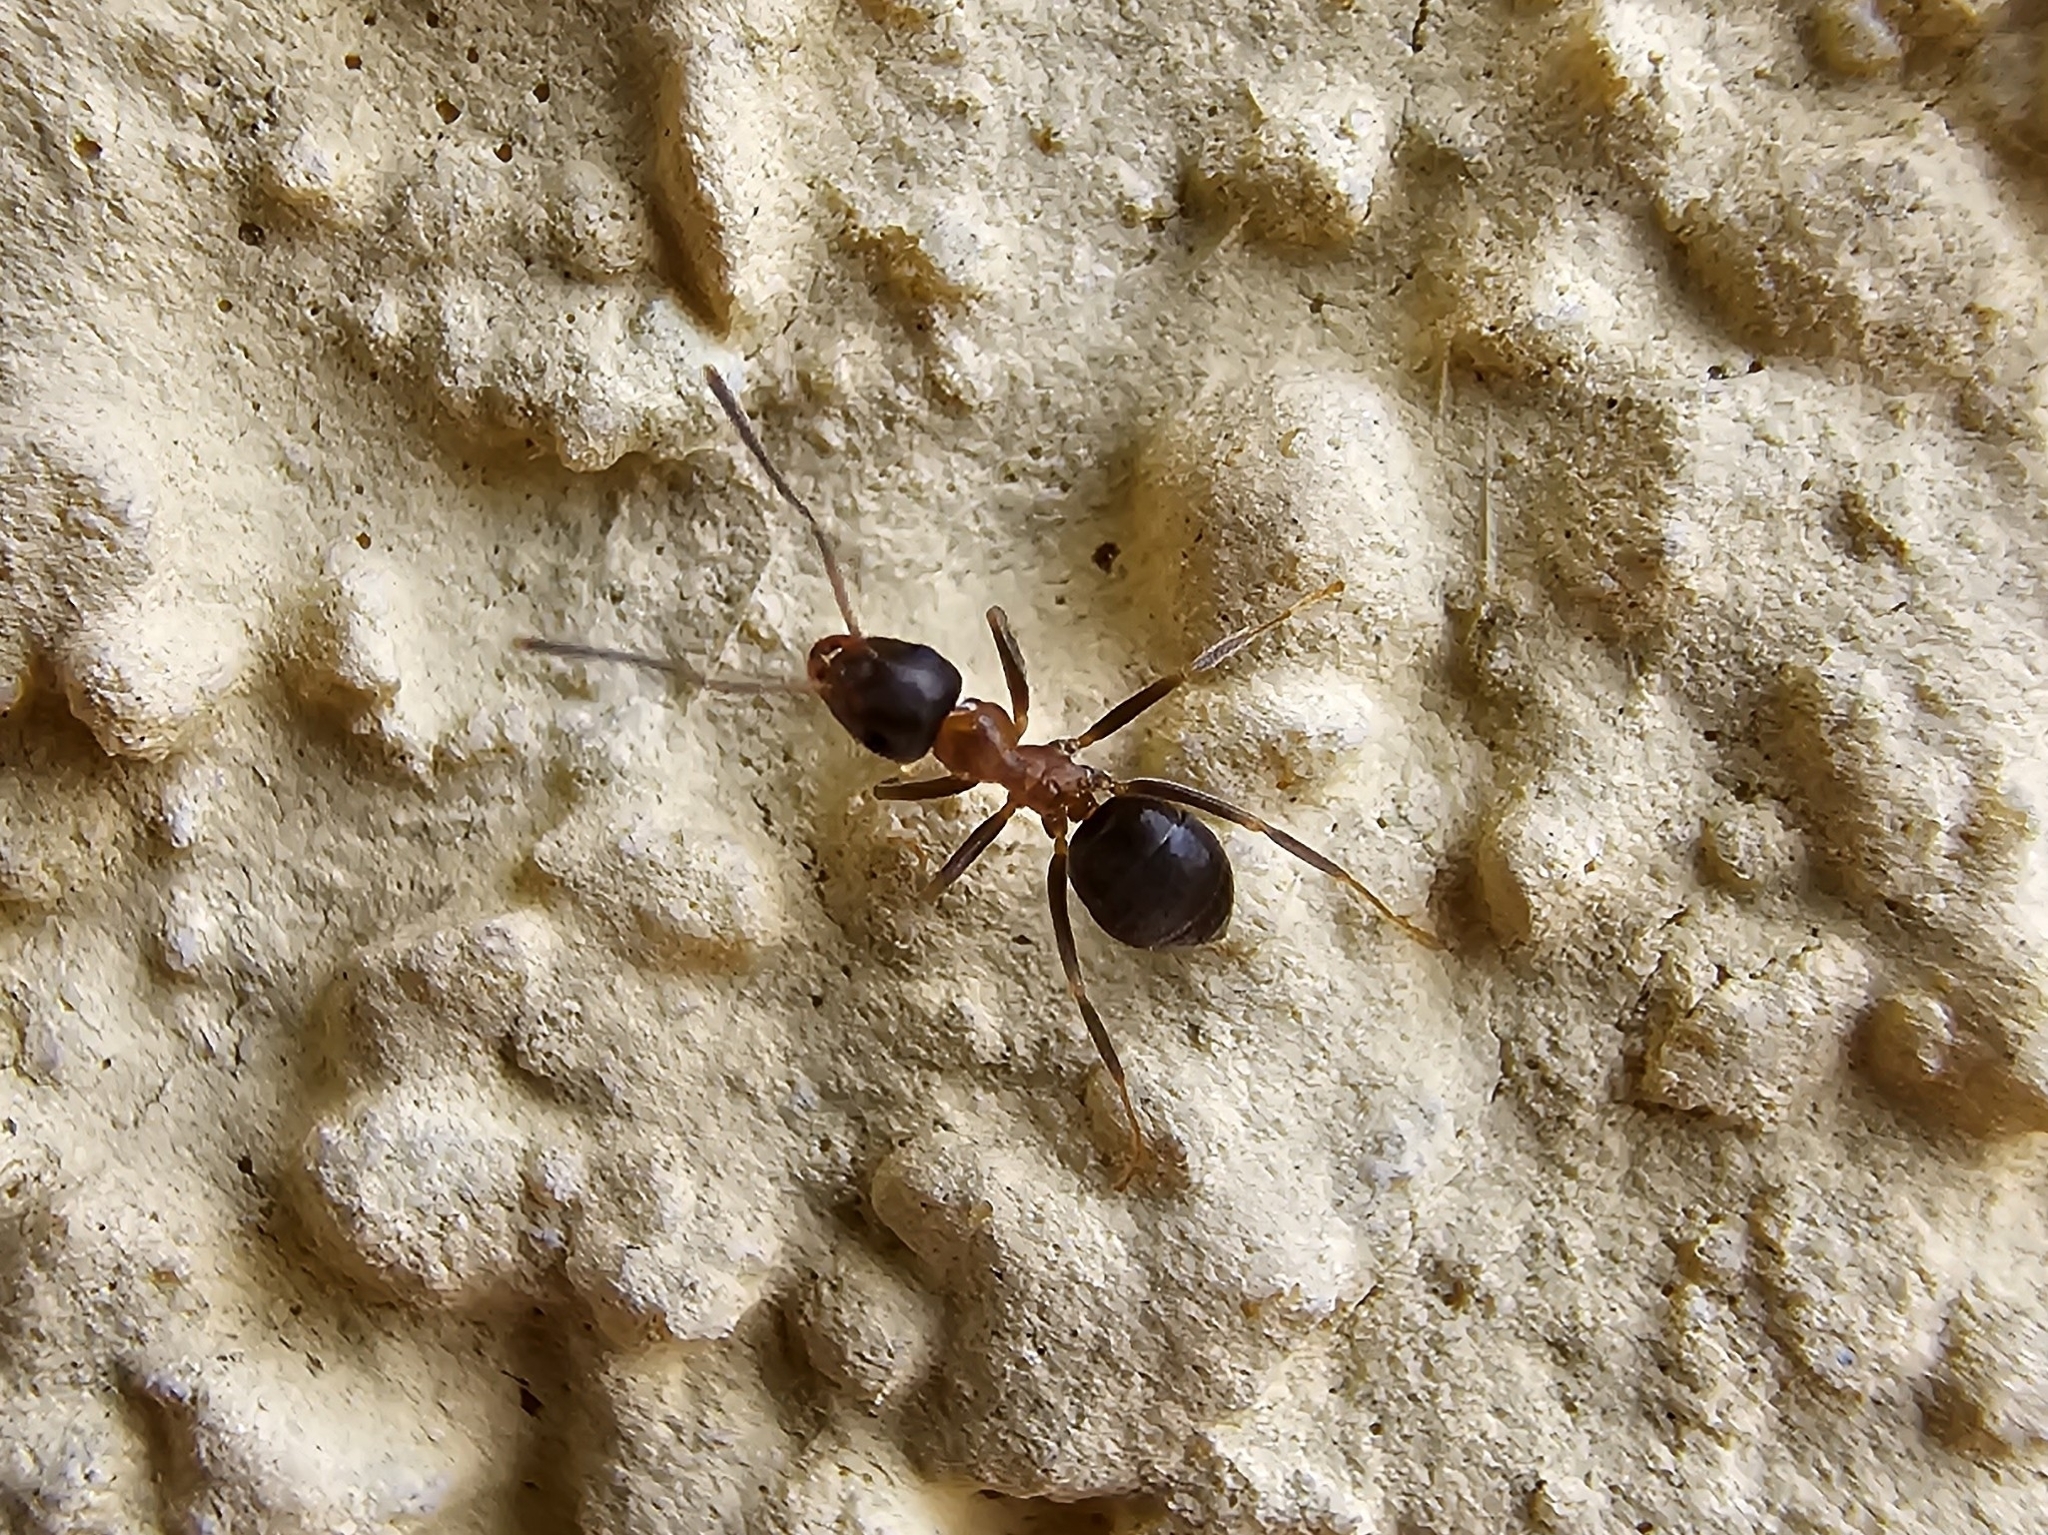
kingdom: Animalia
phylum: Arthropoda
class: Insecta
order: Hymenoptera
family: Formicidae
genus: Lasius
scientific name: Lasius emarginatus
